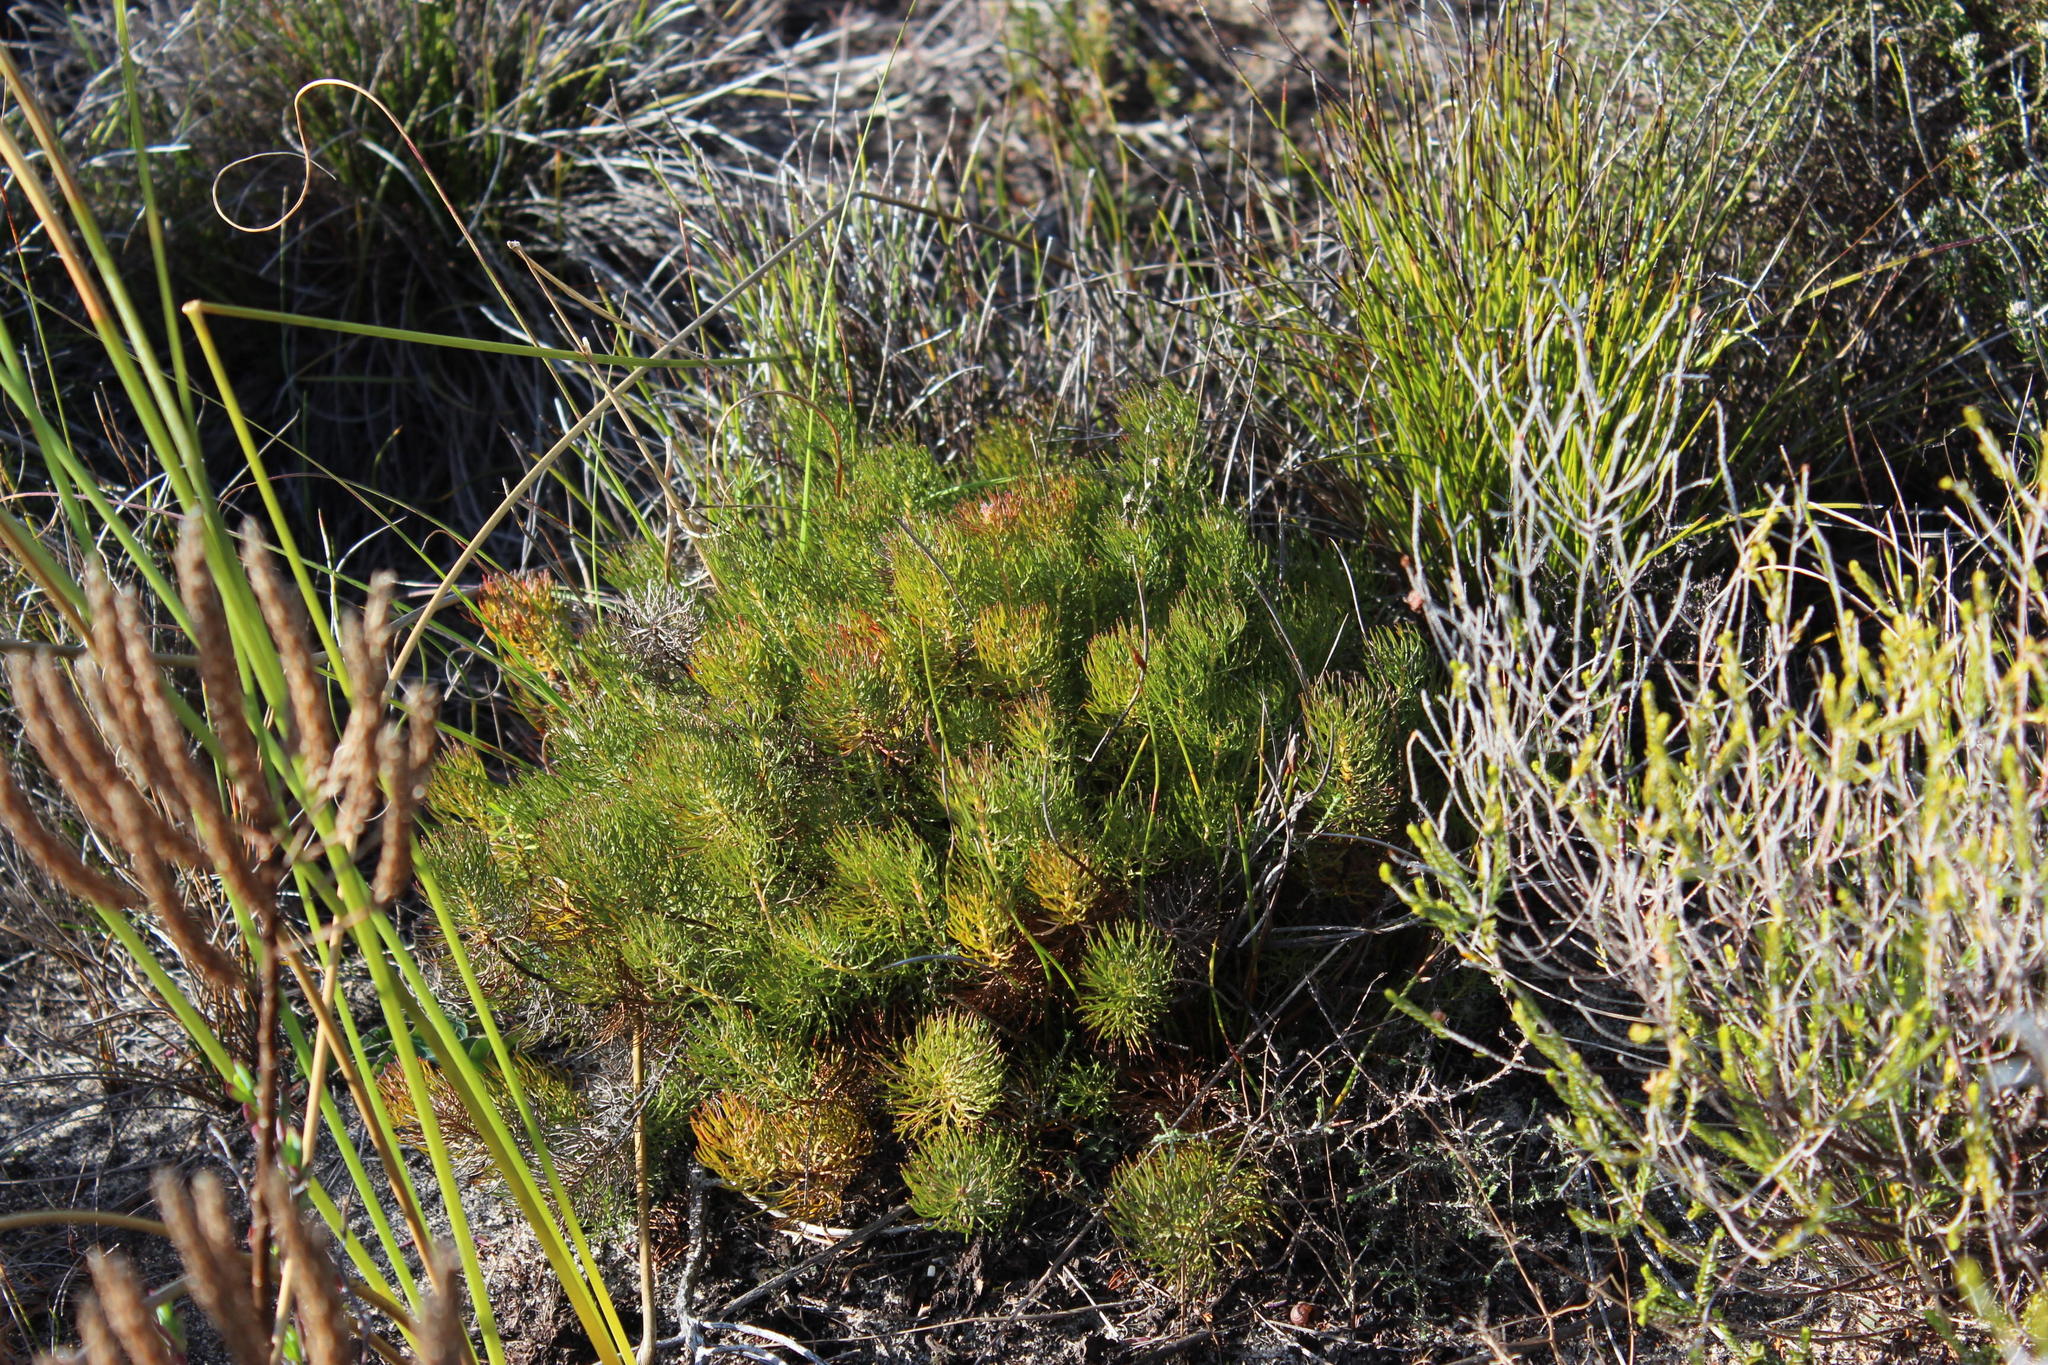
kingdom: Plantae
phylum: Tracheophyta
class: Magnoliopsida
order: Proteales
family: Proteaceae
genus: Serruria
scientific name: Serruria cyanoides
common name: Wynberg spiderhead
